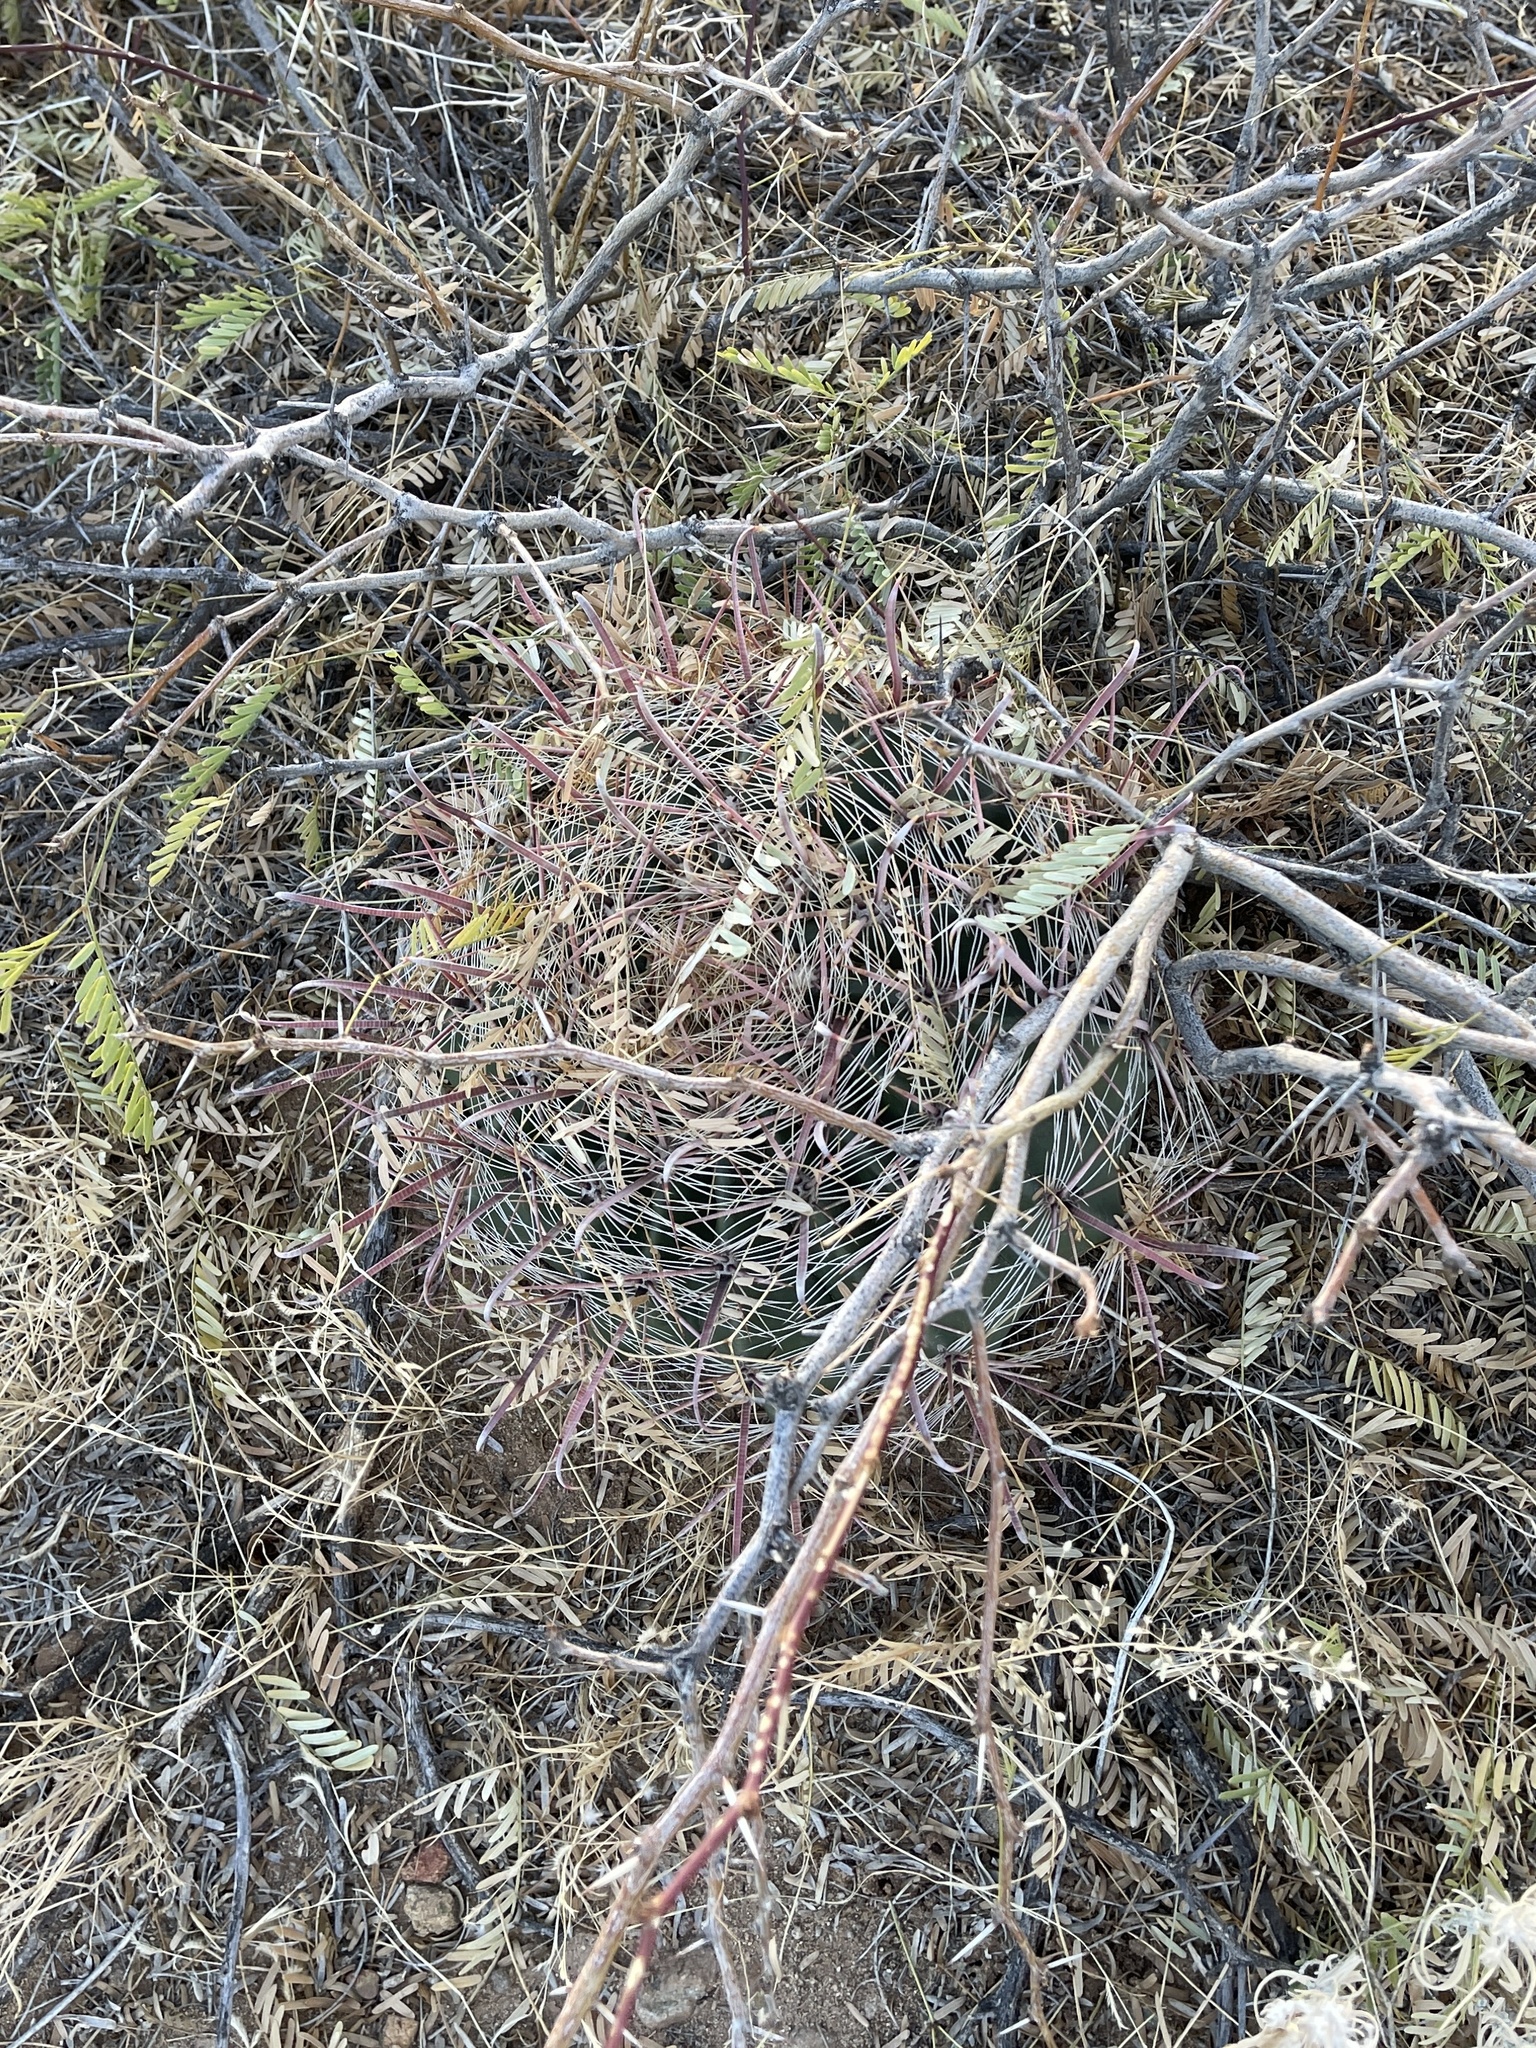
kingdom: Plantae
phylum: Tracheophyta
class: Magnoliopsida
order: Caryophyllales
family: Cactaceae
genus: Ferocactus
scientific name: Ferocactus wislizeni
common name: Candy barrel cactus
